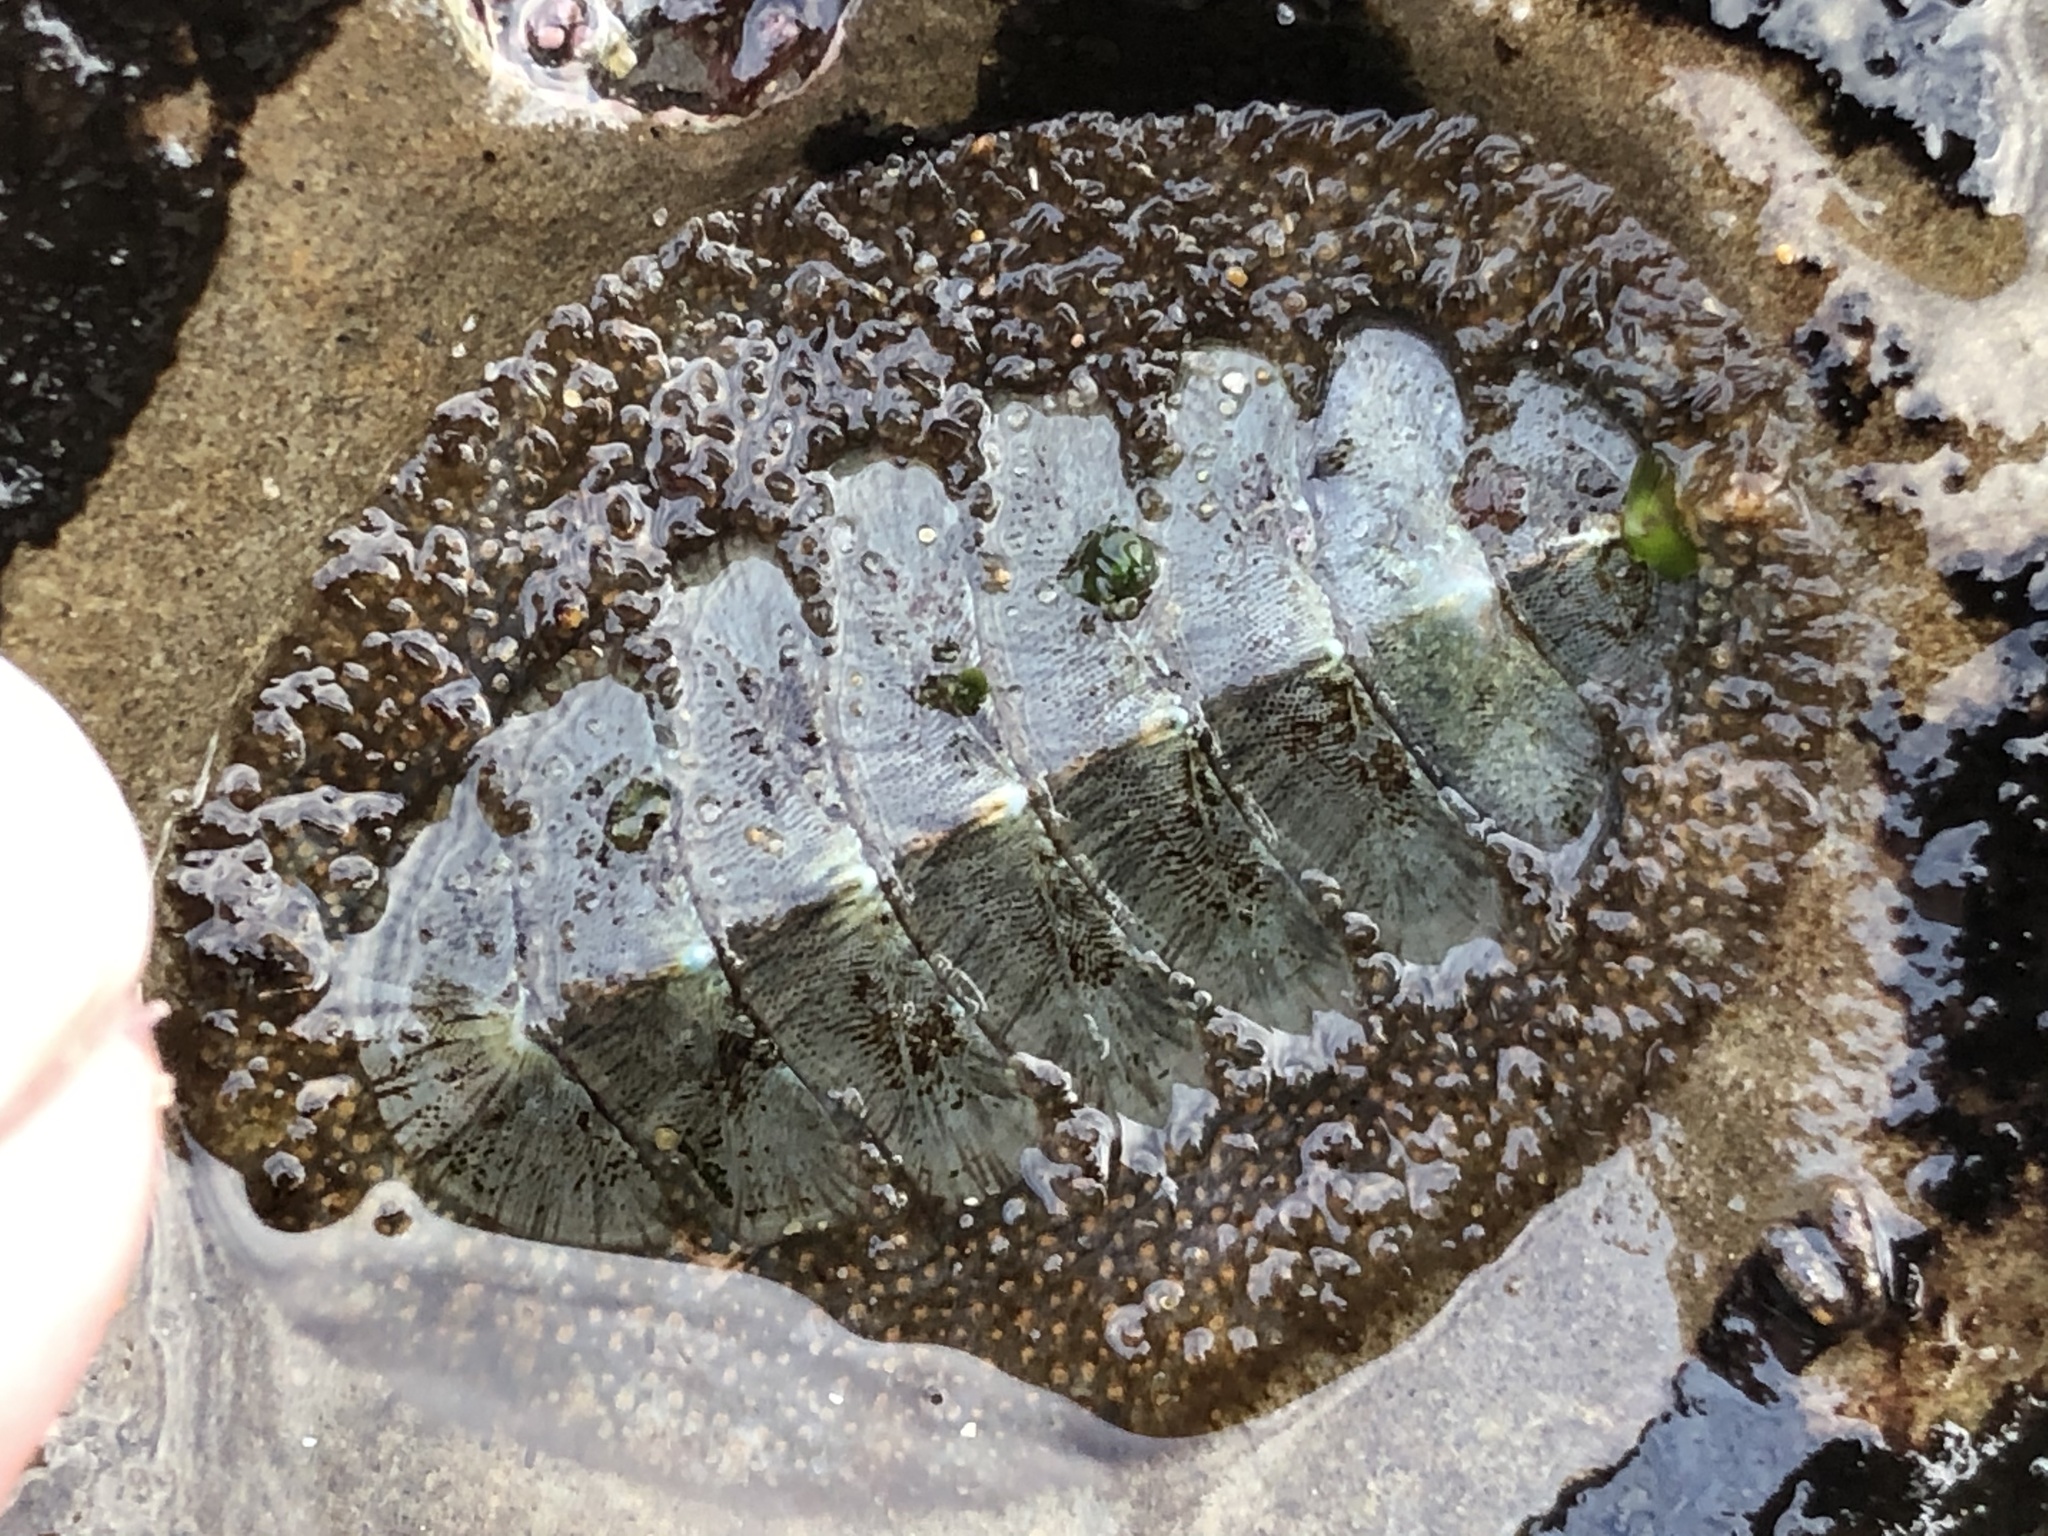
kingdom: Animalia
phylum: Mollusca
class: Polyplacophora
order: Chitonida
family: Mopaliidae
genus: Mopalia
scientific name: Mopalia lignosa
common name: Woody chiton
